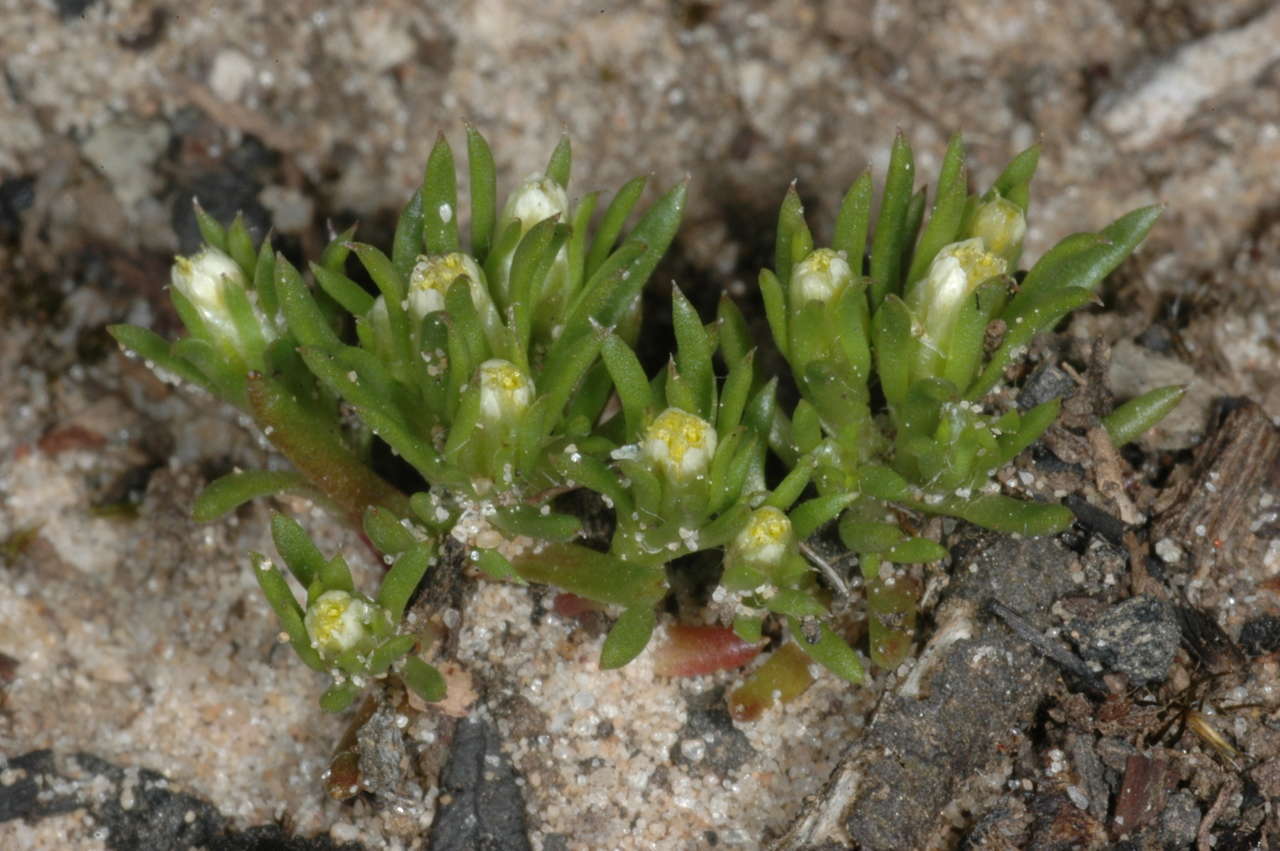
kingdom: Plantae
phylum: Tracheophyta
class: Magnoliopsida
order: Asterales
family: Asteraceae
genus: Hyalosperma
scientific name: Hyalosperma demissum
